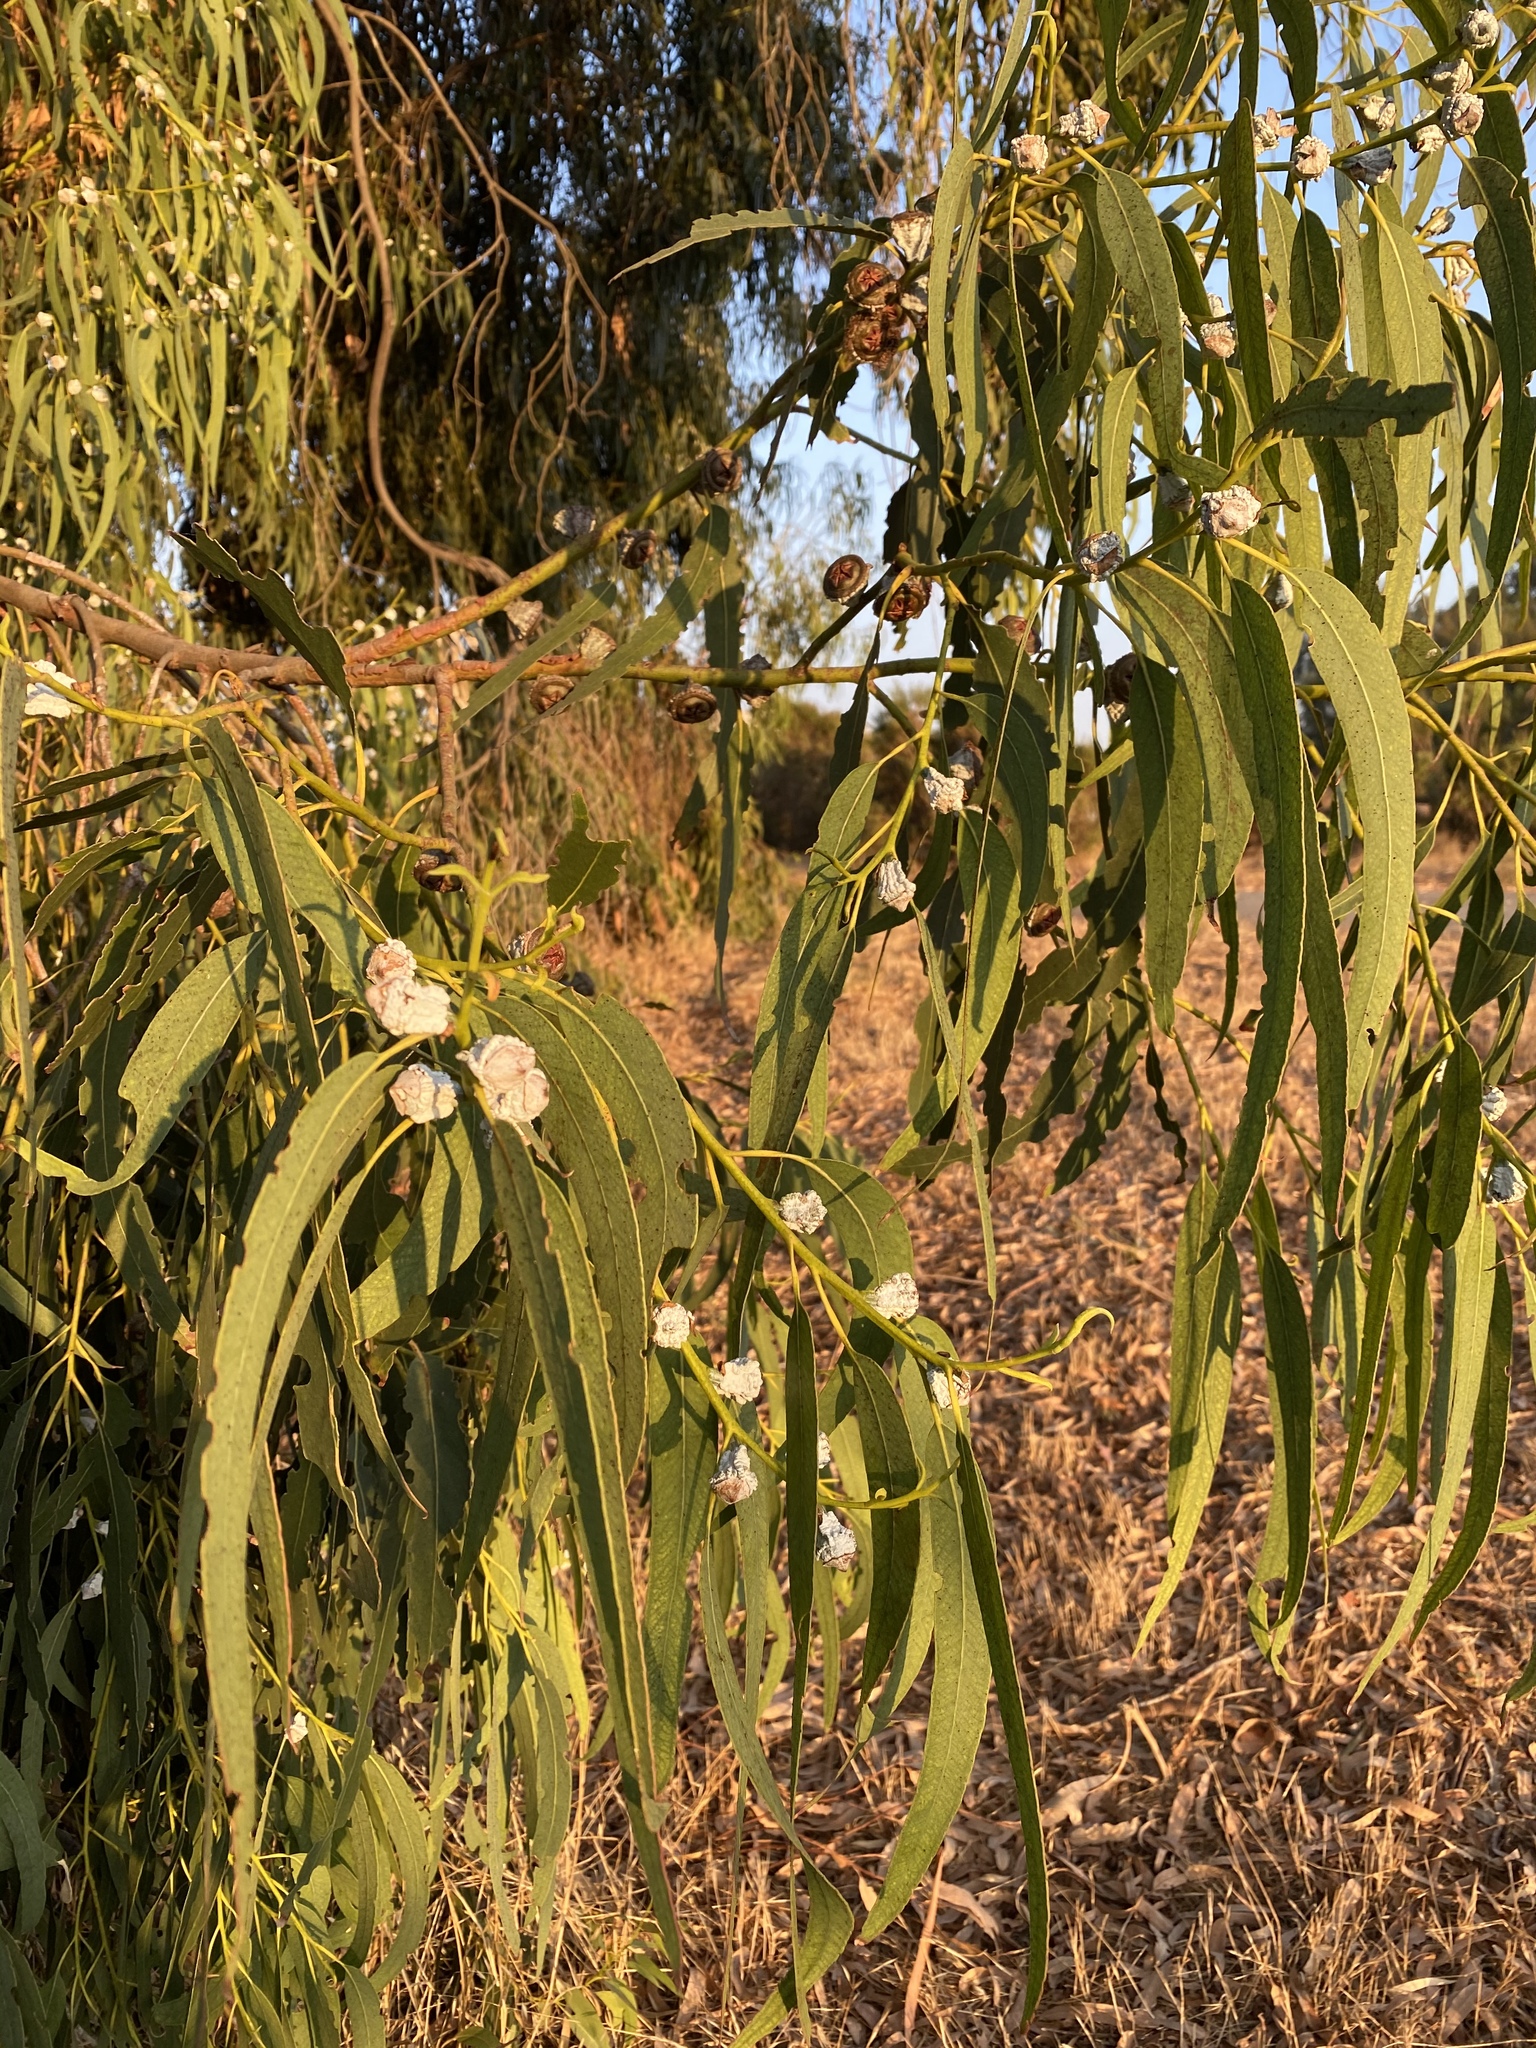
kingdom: Plantae
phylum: Tracheophyta
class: Magnoliopsida
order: Myrtales
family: Myrtaceae
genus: Eucalyptus
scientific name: Eucalyptus globulus
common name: Southern blue-gum
